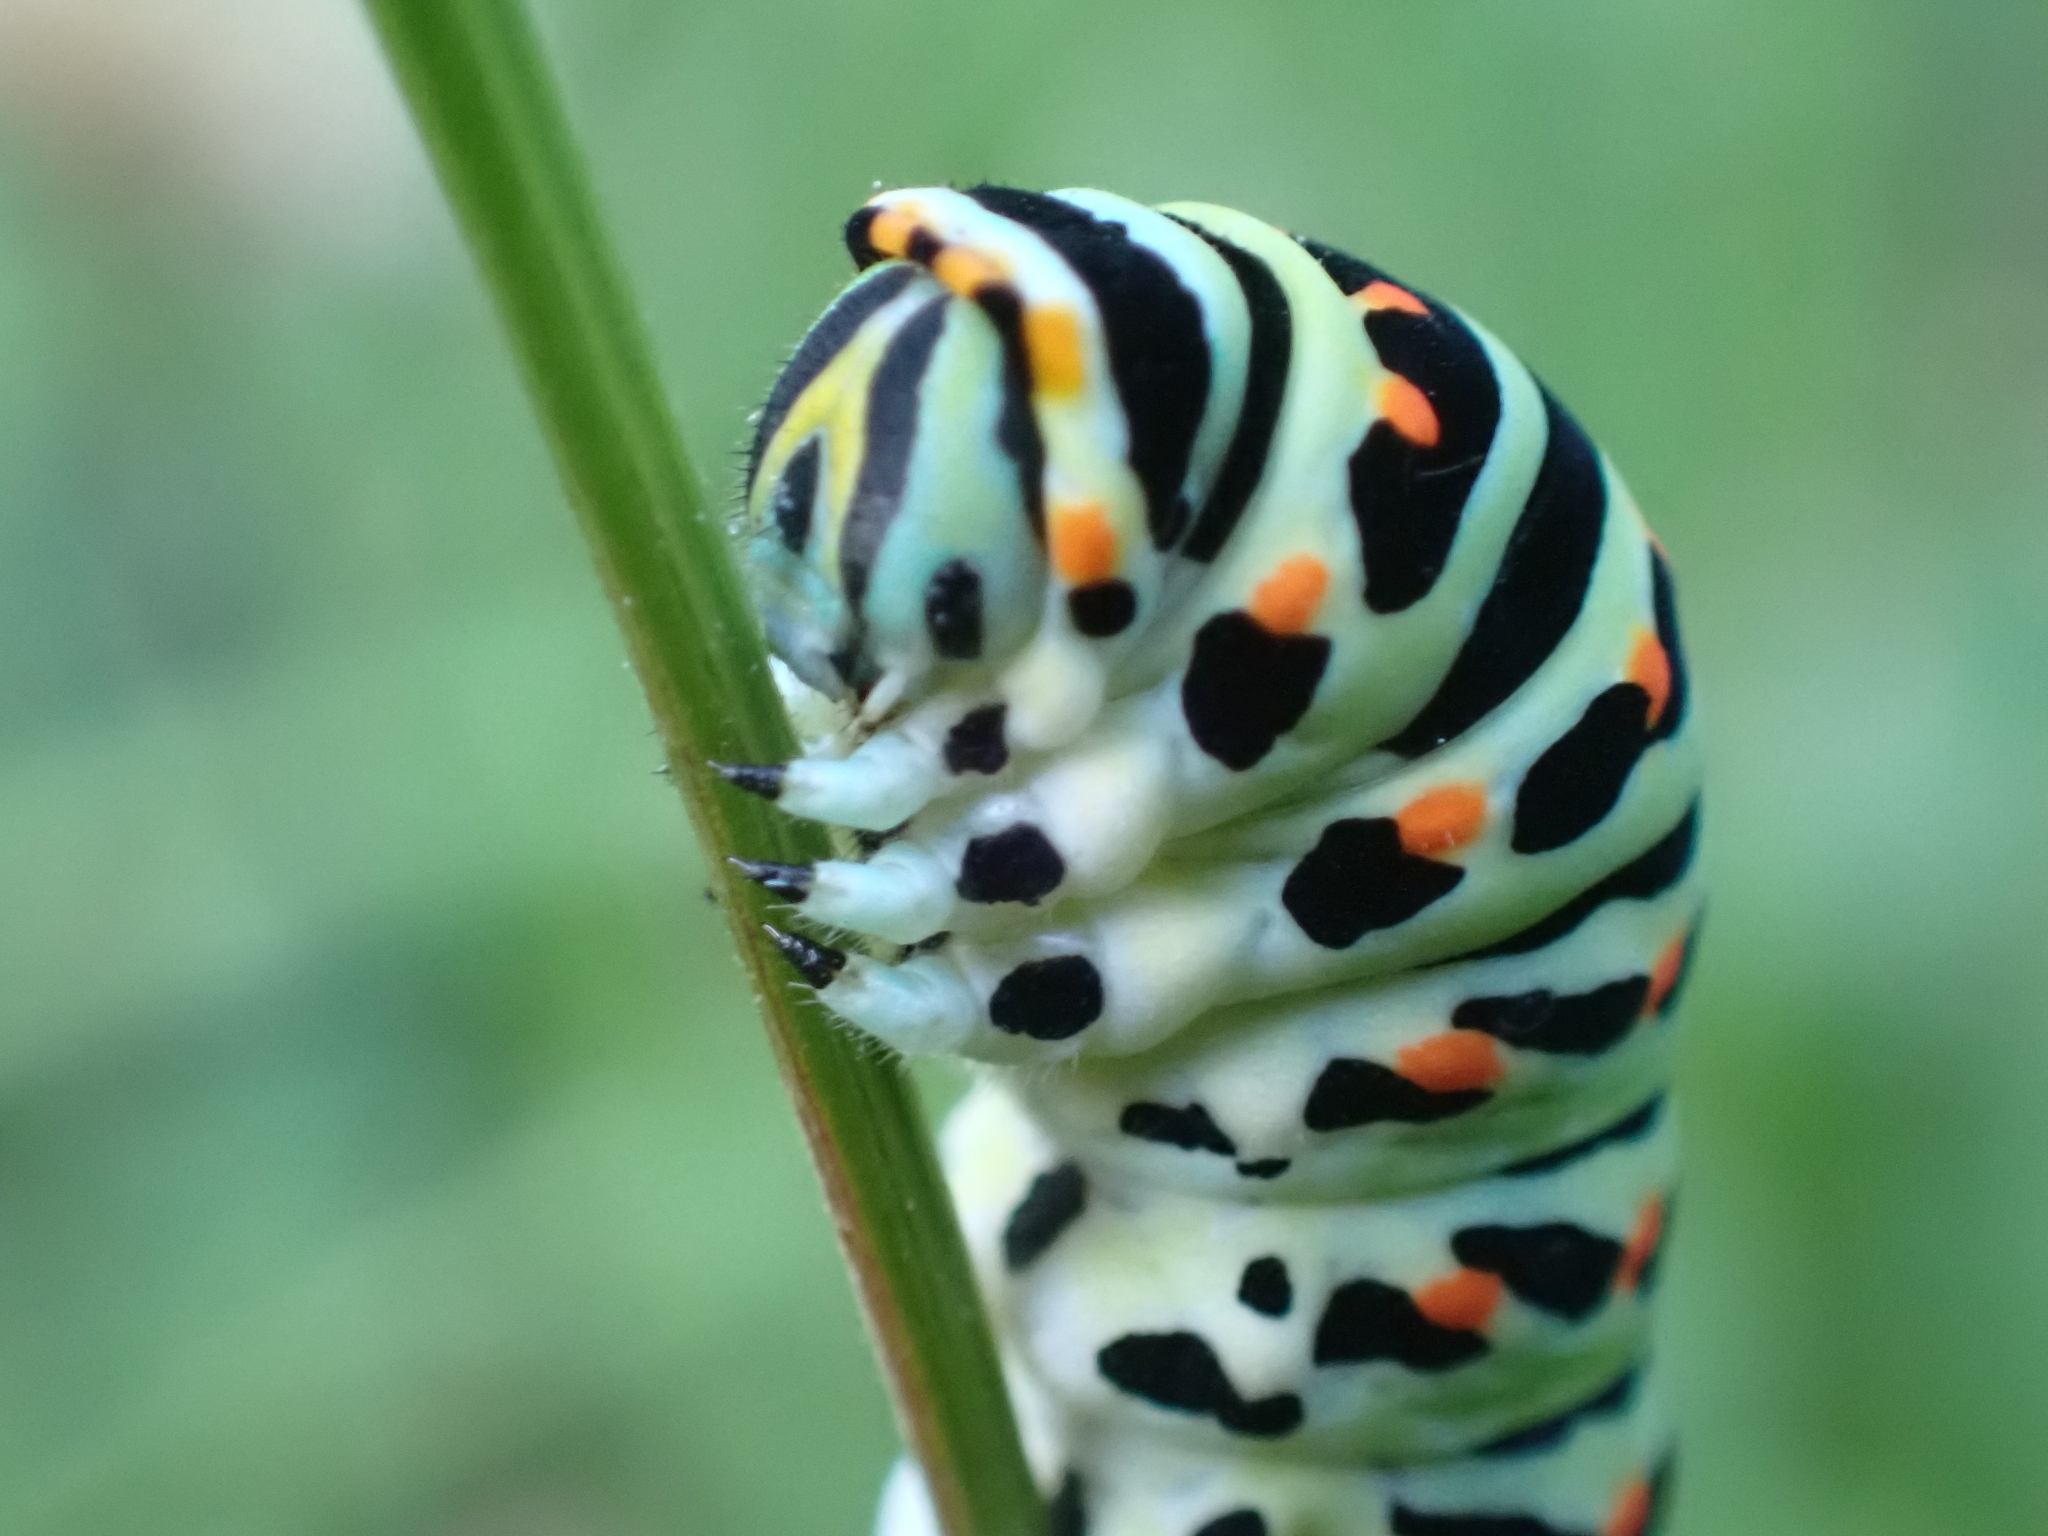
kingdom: Animalia
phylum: Arthropoda
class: Insecta
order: Lepidoptera
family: Papilionidae
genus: Papilio
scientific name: Papilio machaon
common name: Swallowtail
